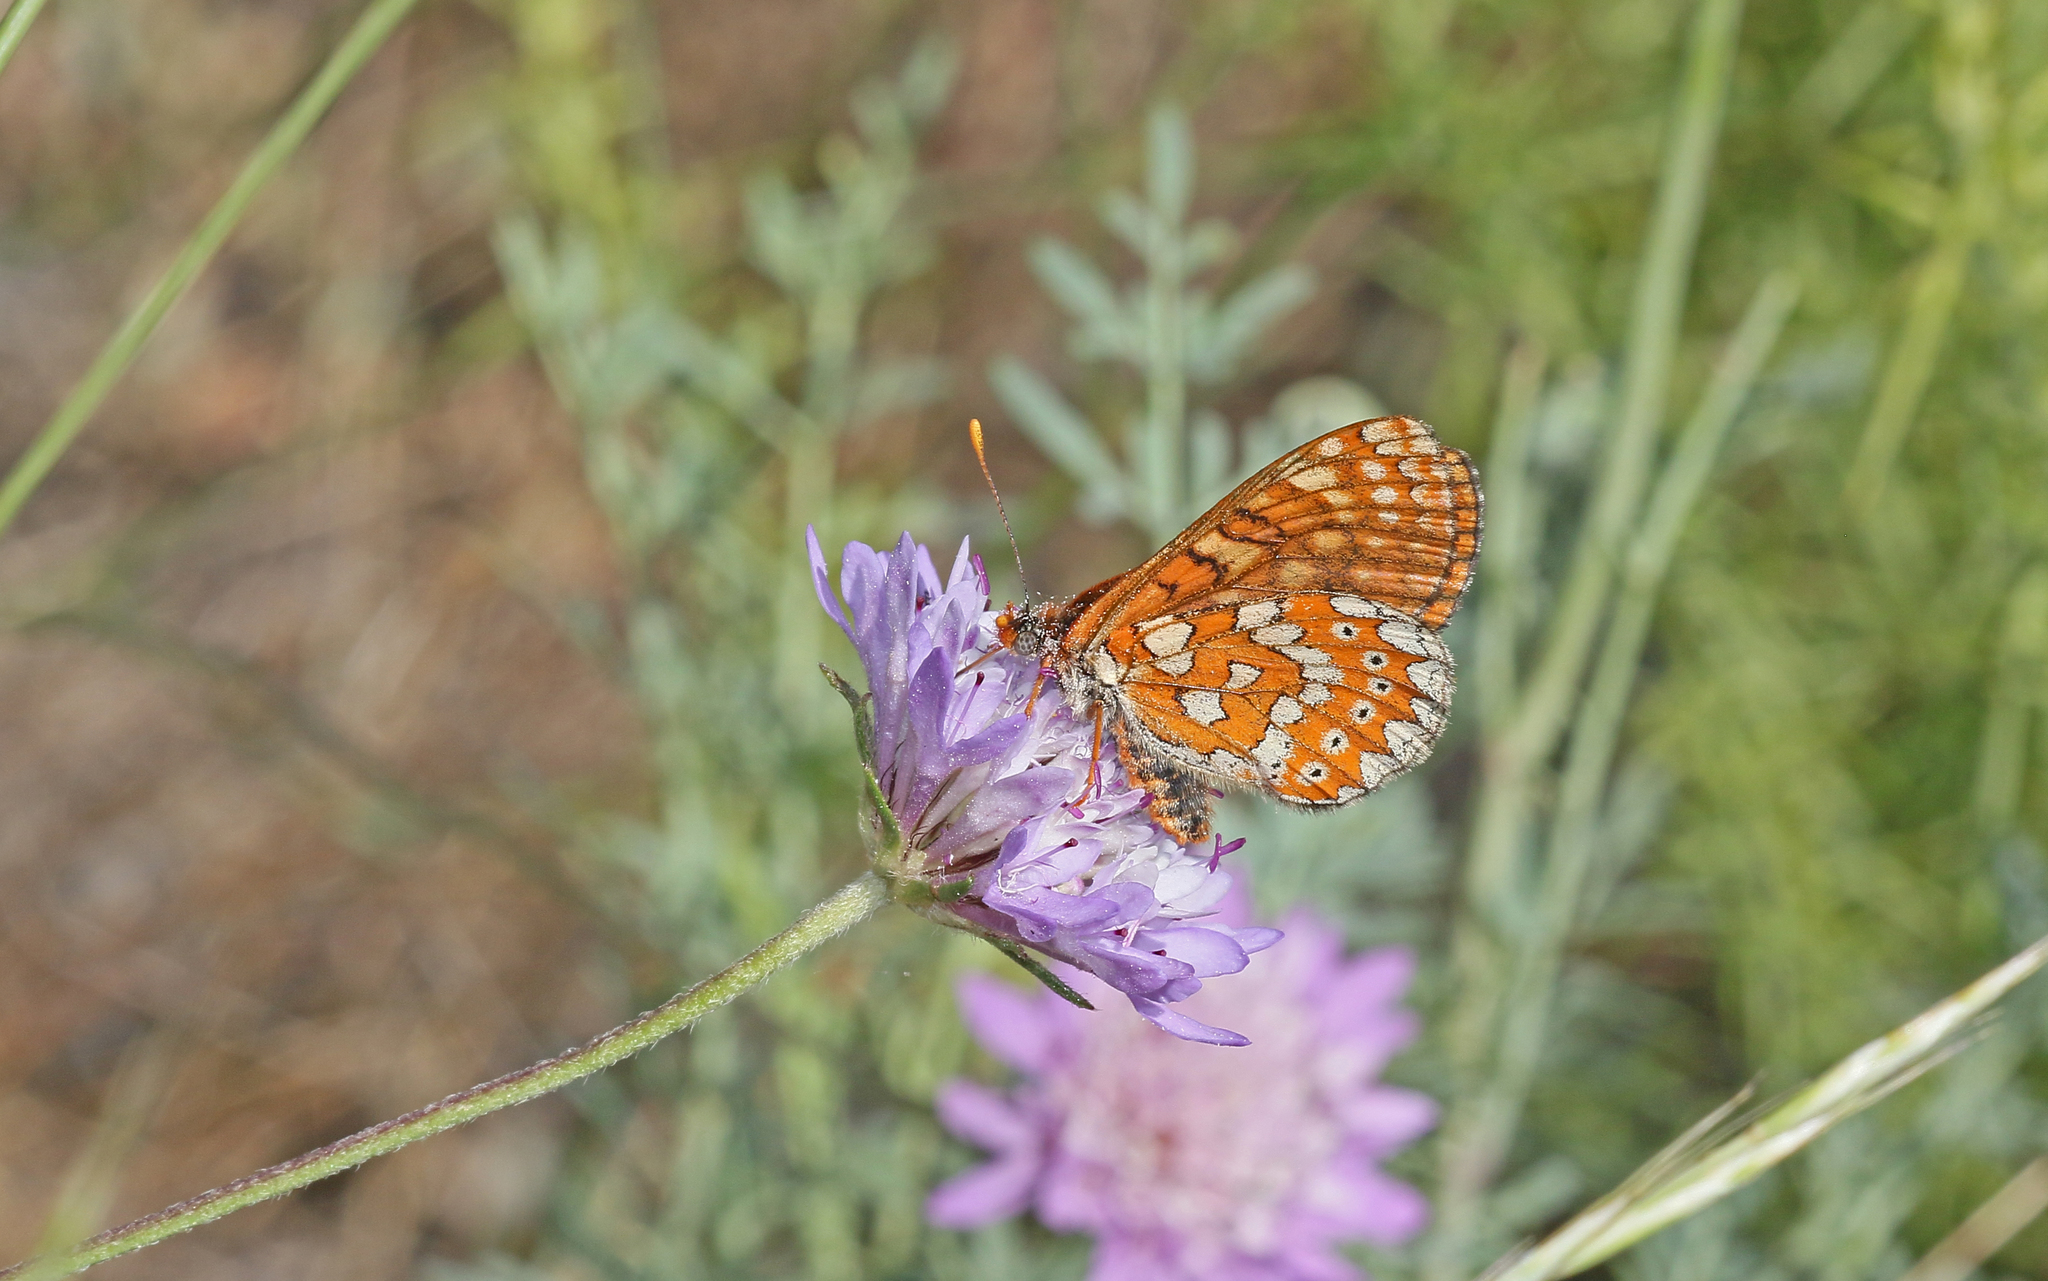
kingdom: Animalia
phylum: Arthropoda
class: Insecta
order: Lepidoptera
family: Nymphalidae
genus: Euphydryas
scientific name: Euphydryas aurinia
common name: Marsh fritillary
